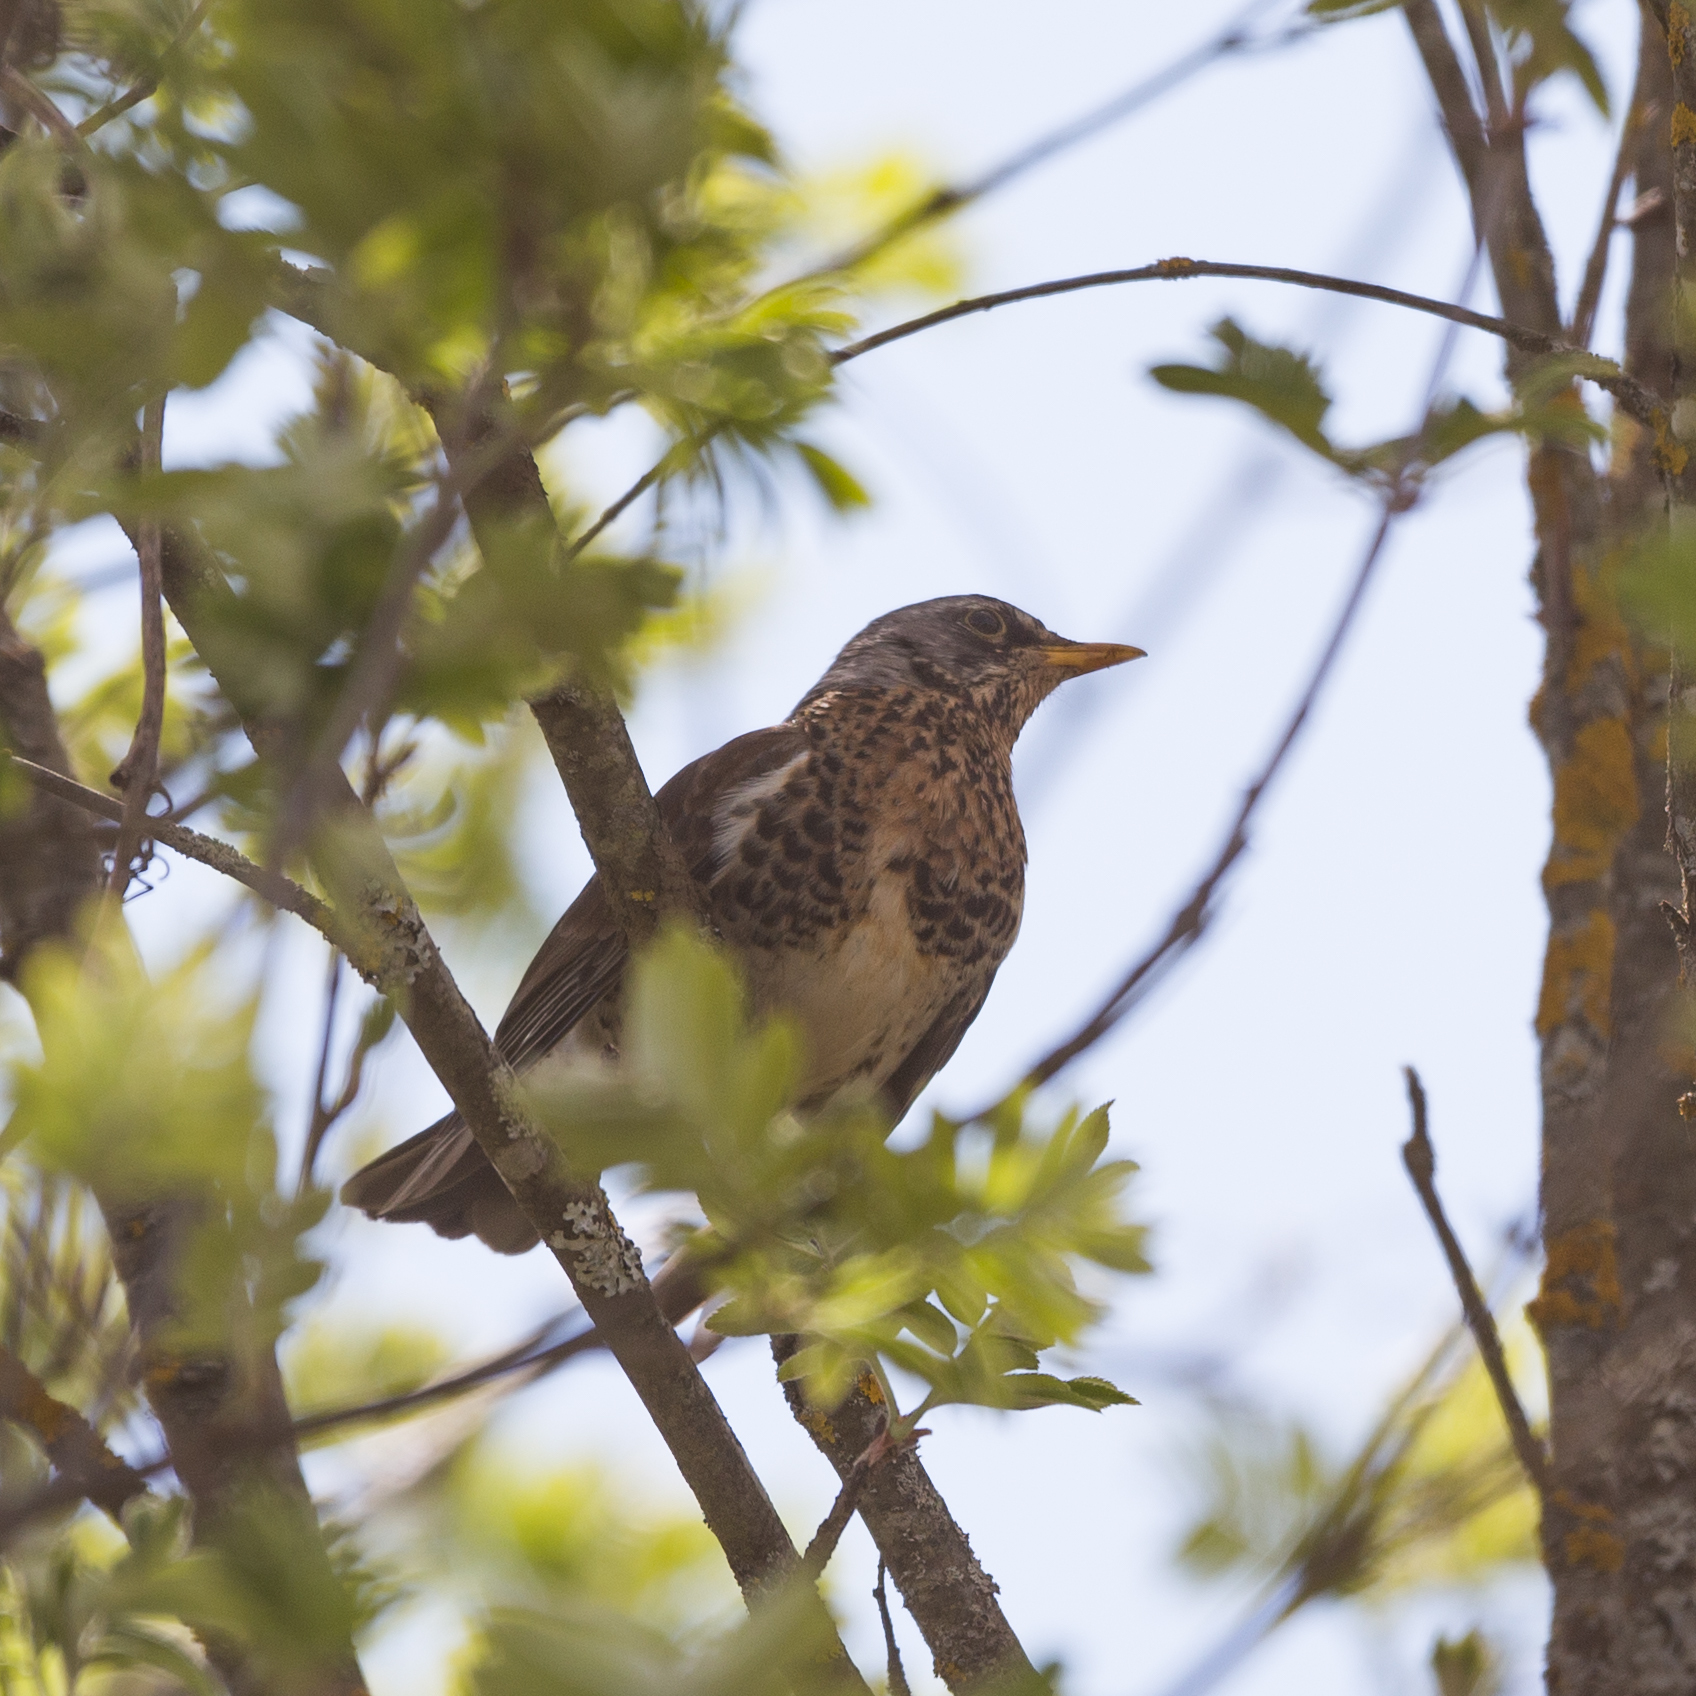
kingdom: Animalia
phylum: Chordata
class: Aves
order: Passeriformes
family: Turdidae
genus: Turdus
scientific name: Turdus pilaris
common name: Fieldfare
